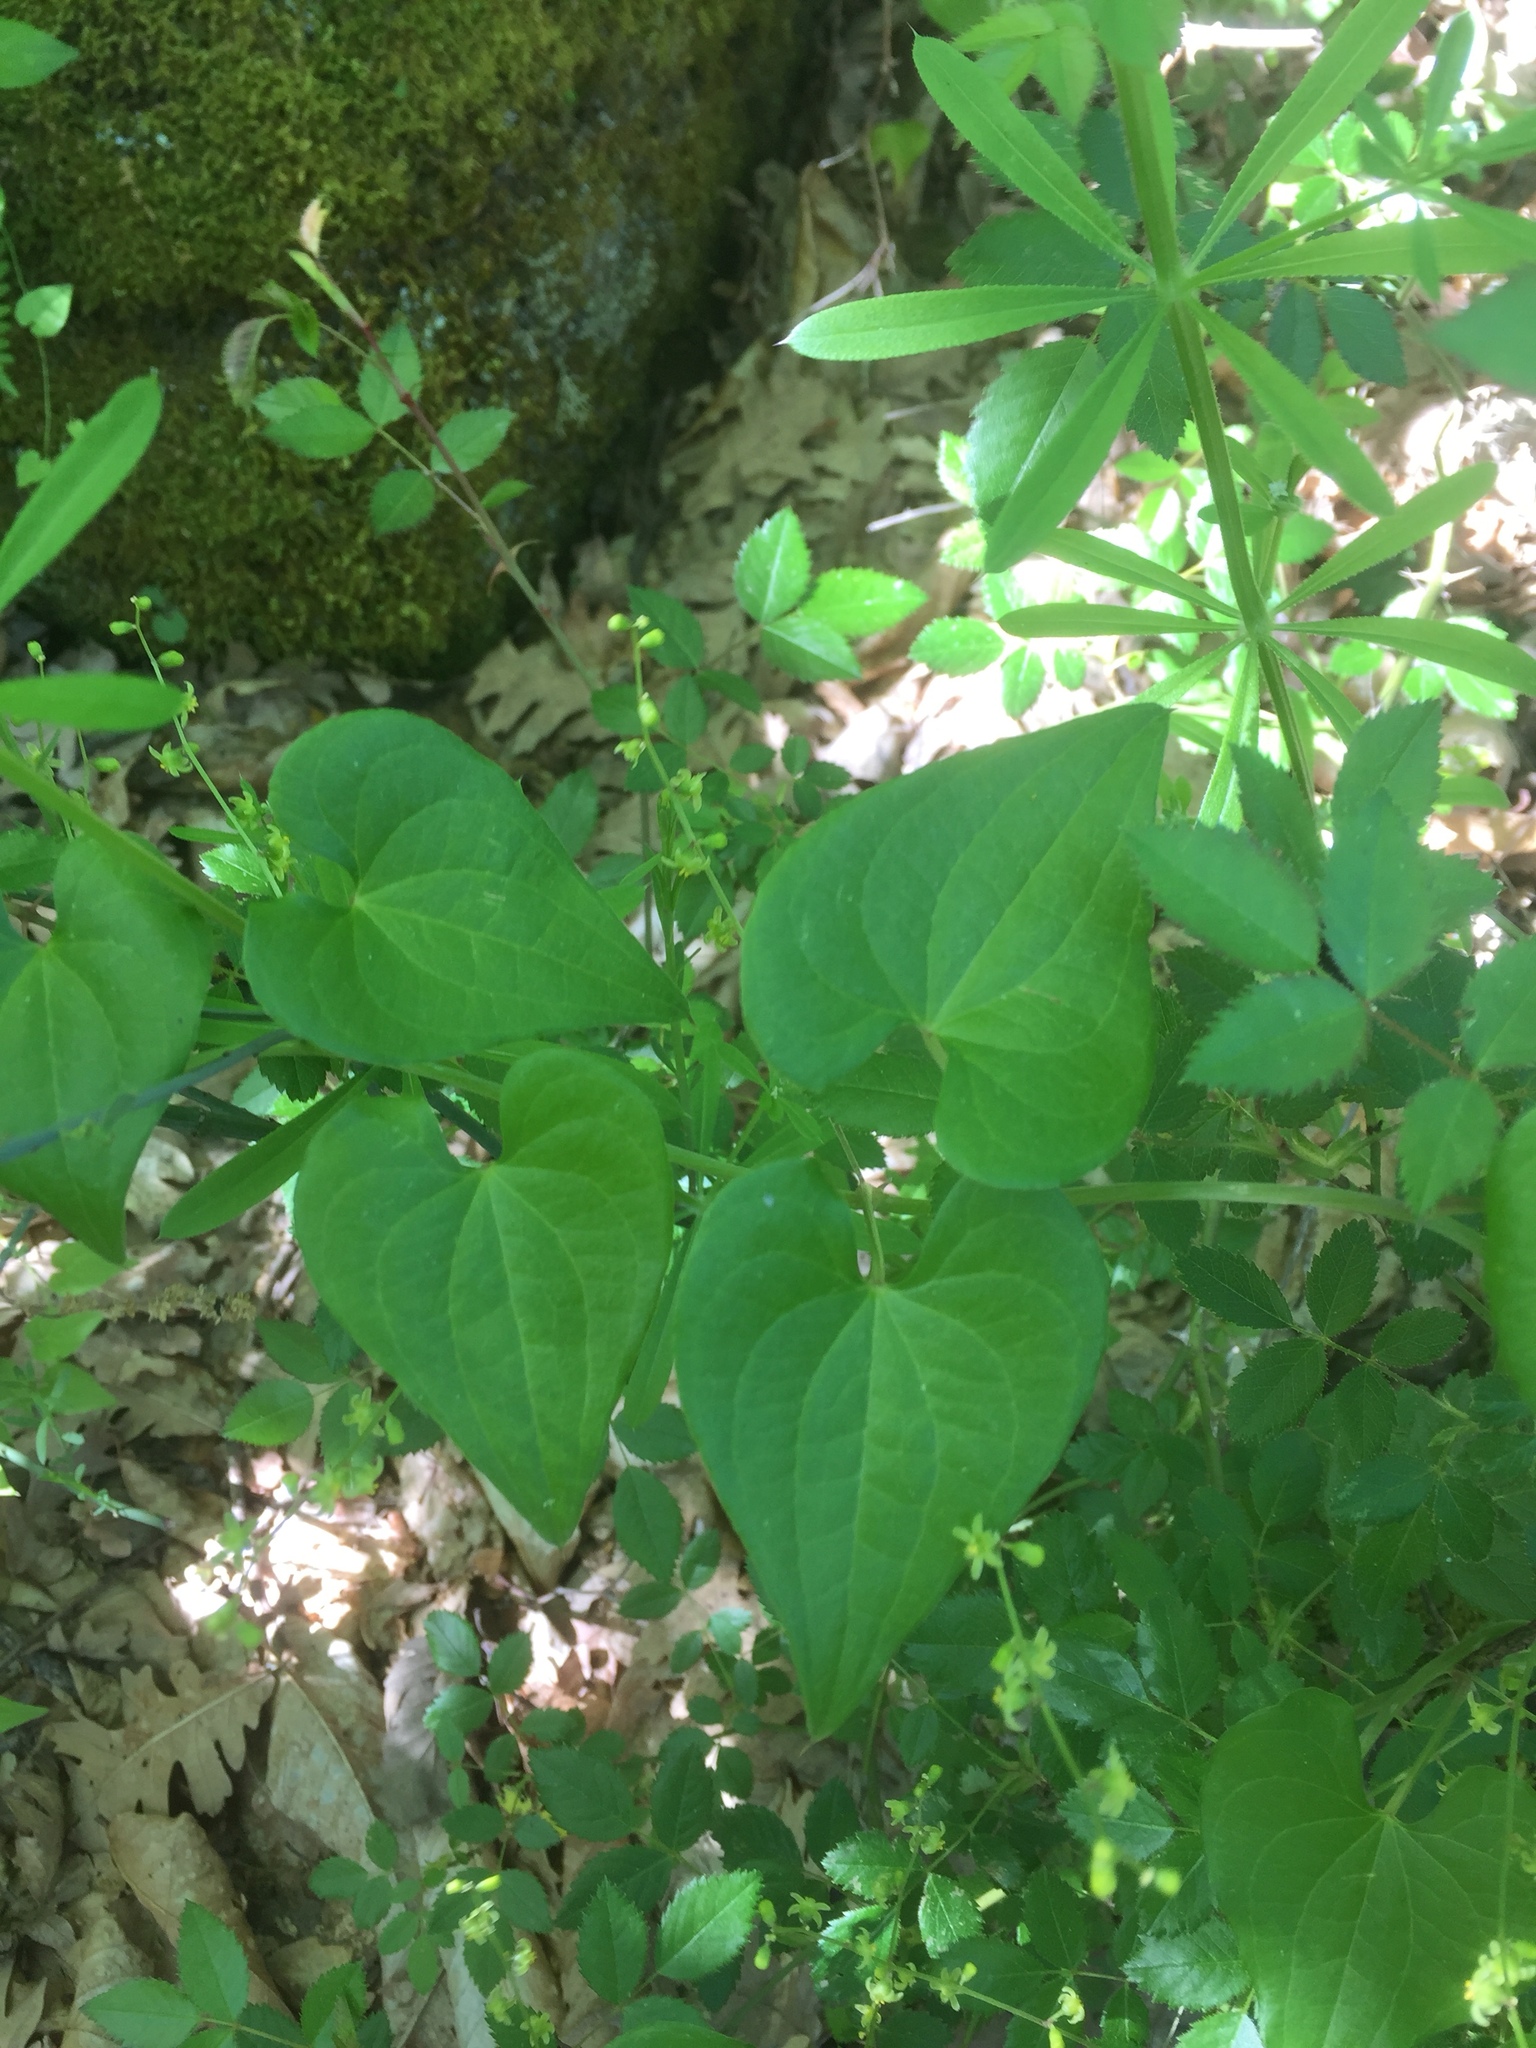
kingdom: Plantae
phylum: Tracheophyta
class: Liliopsida
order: Dioscoreales
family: Dioscoreaceae
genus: Dioscorea
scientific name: Dioscorea communis
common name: Black-bindweed
